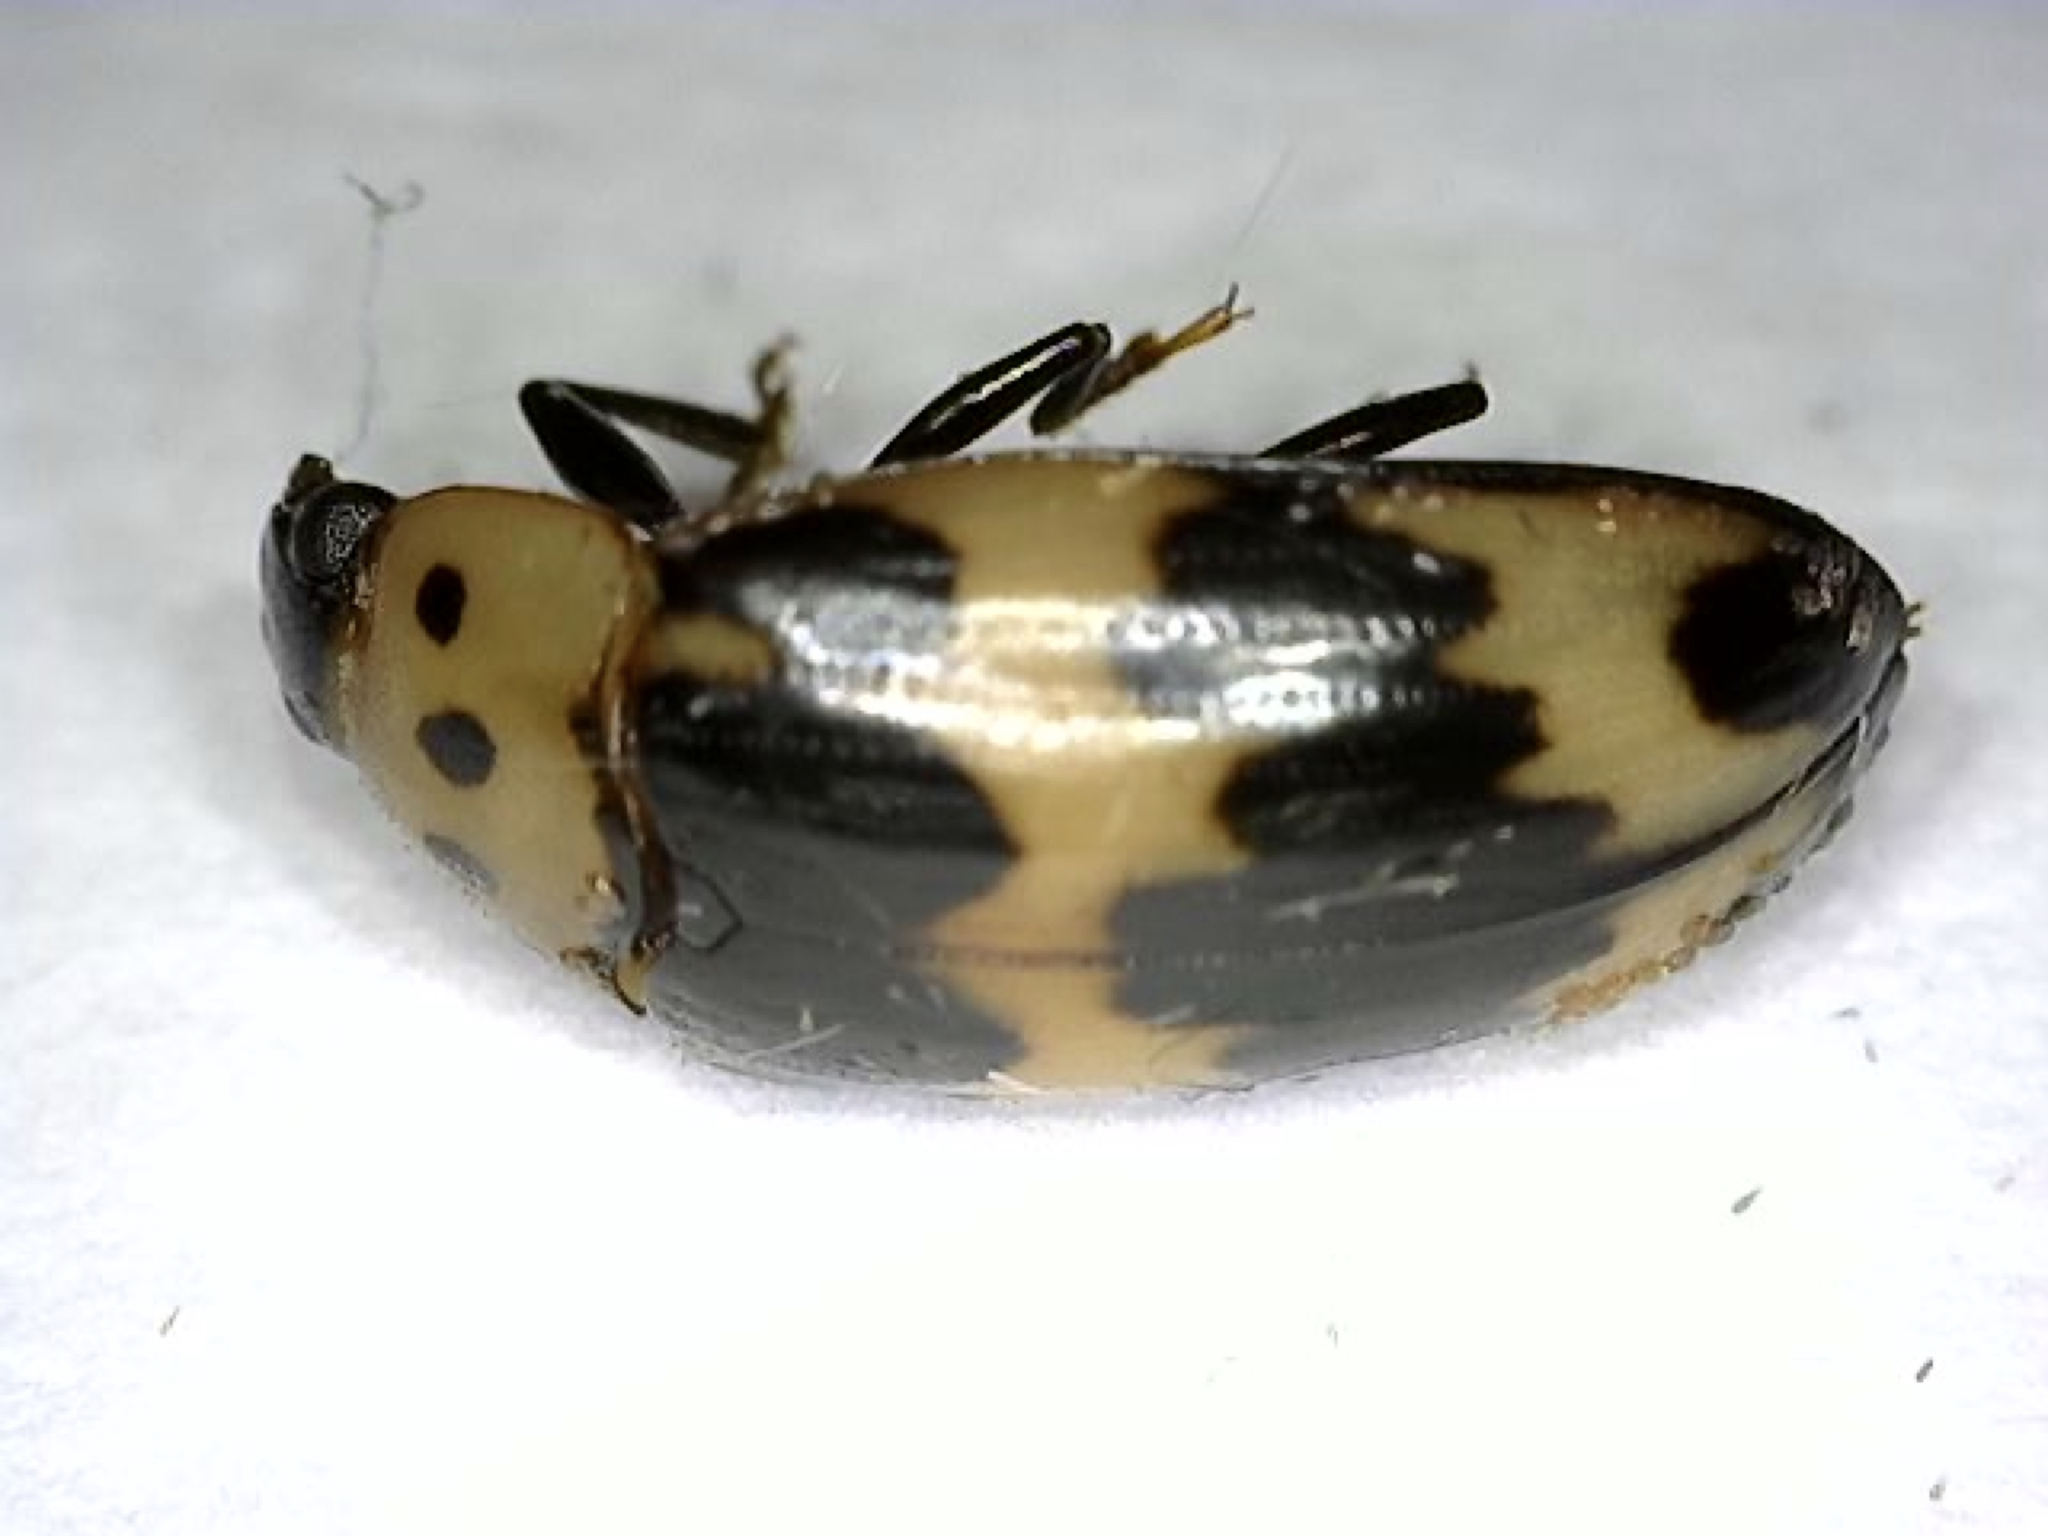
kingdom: Animalia
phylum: Arthropoda
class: Insecta
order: Coleoptera
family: Erotylidae
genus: Ischyrus
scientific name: Ischyrus quadripunctatus
